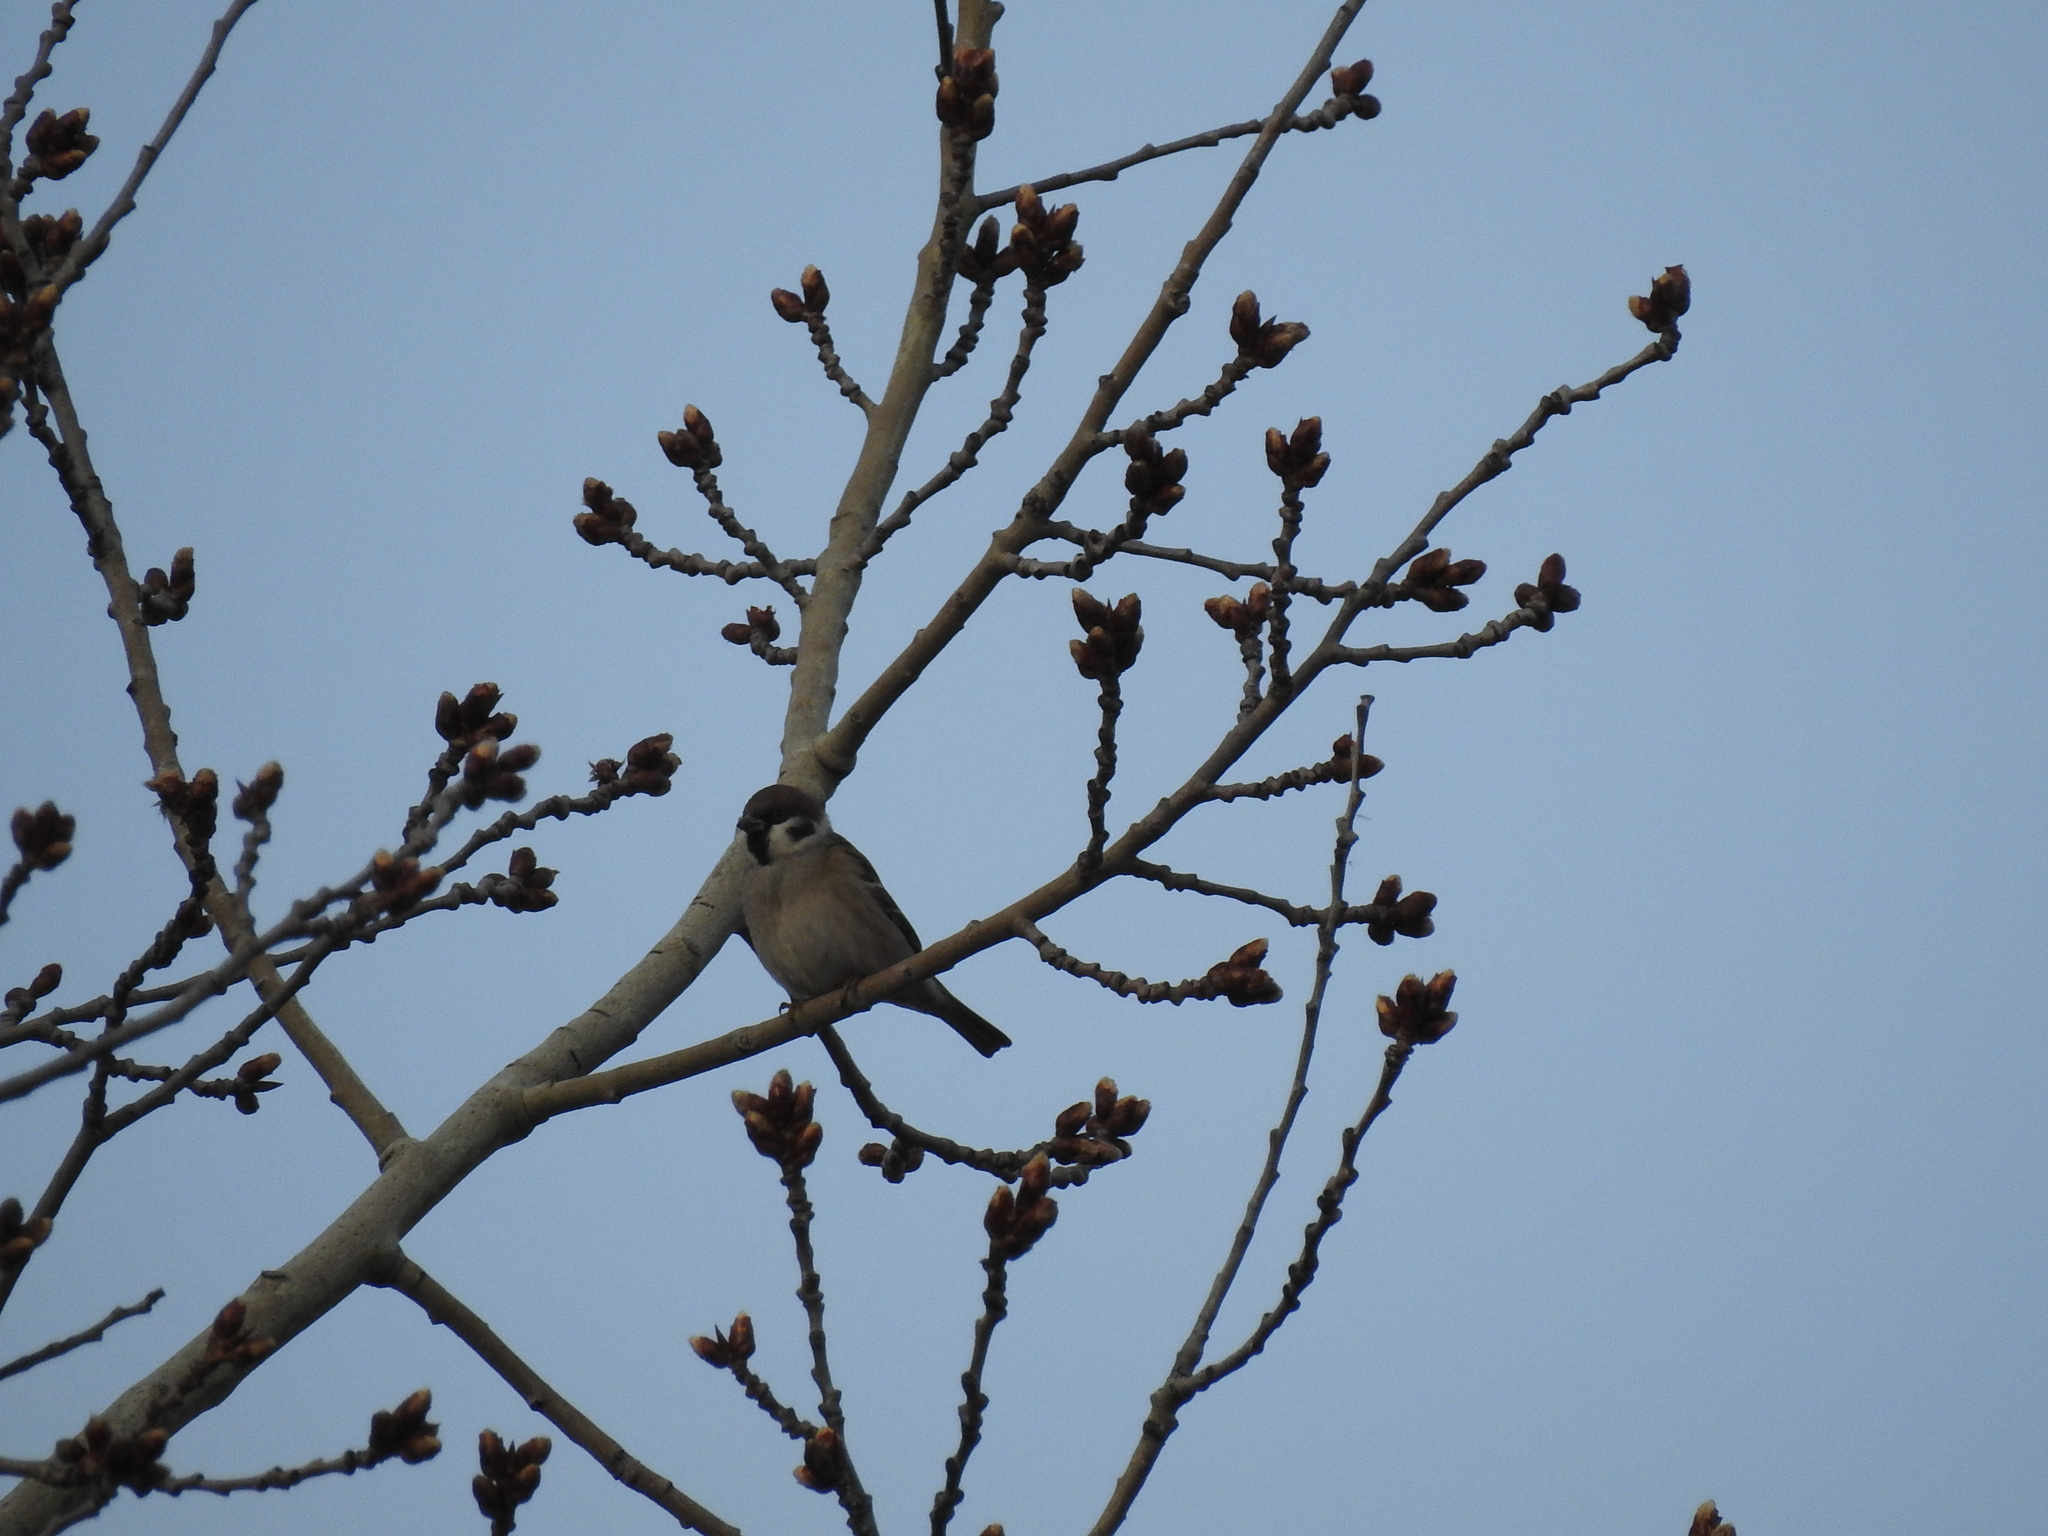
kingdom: Animalia
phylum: Chordata
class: Aves
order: Passeriformes
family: Passeridae
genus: Passer
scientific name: Passer montanus
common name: Eurasian tree sparrow
